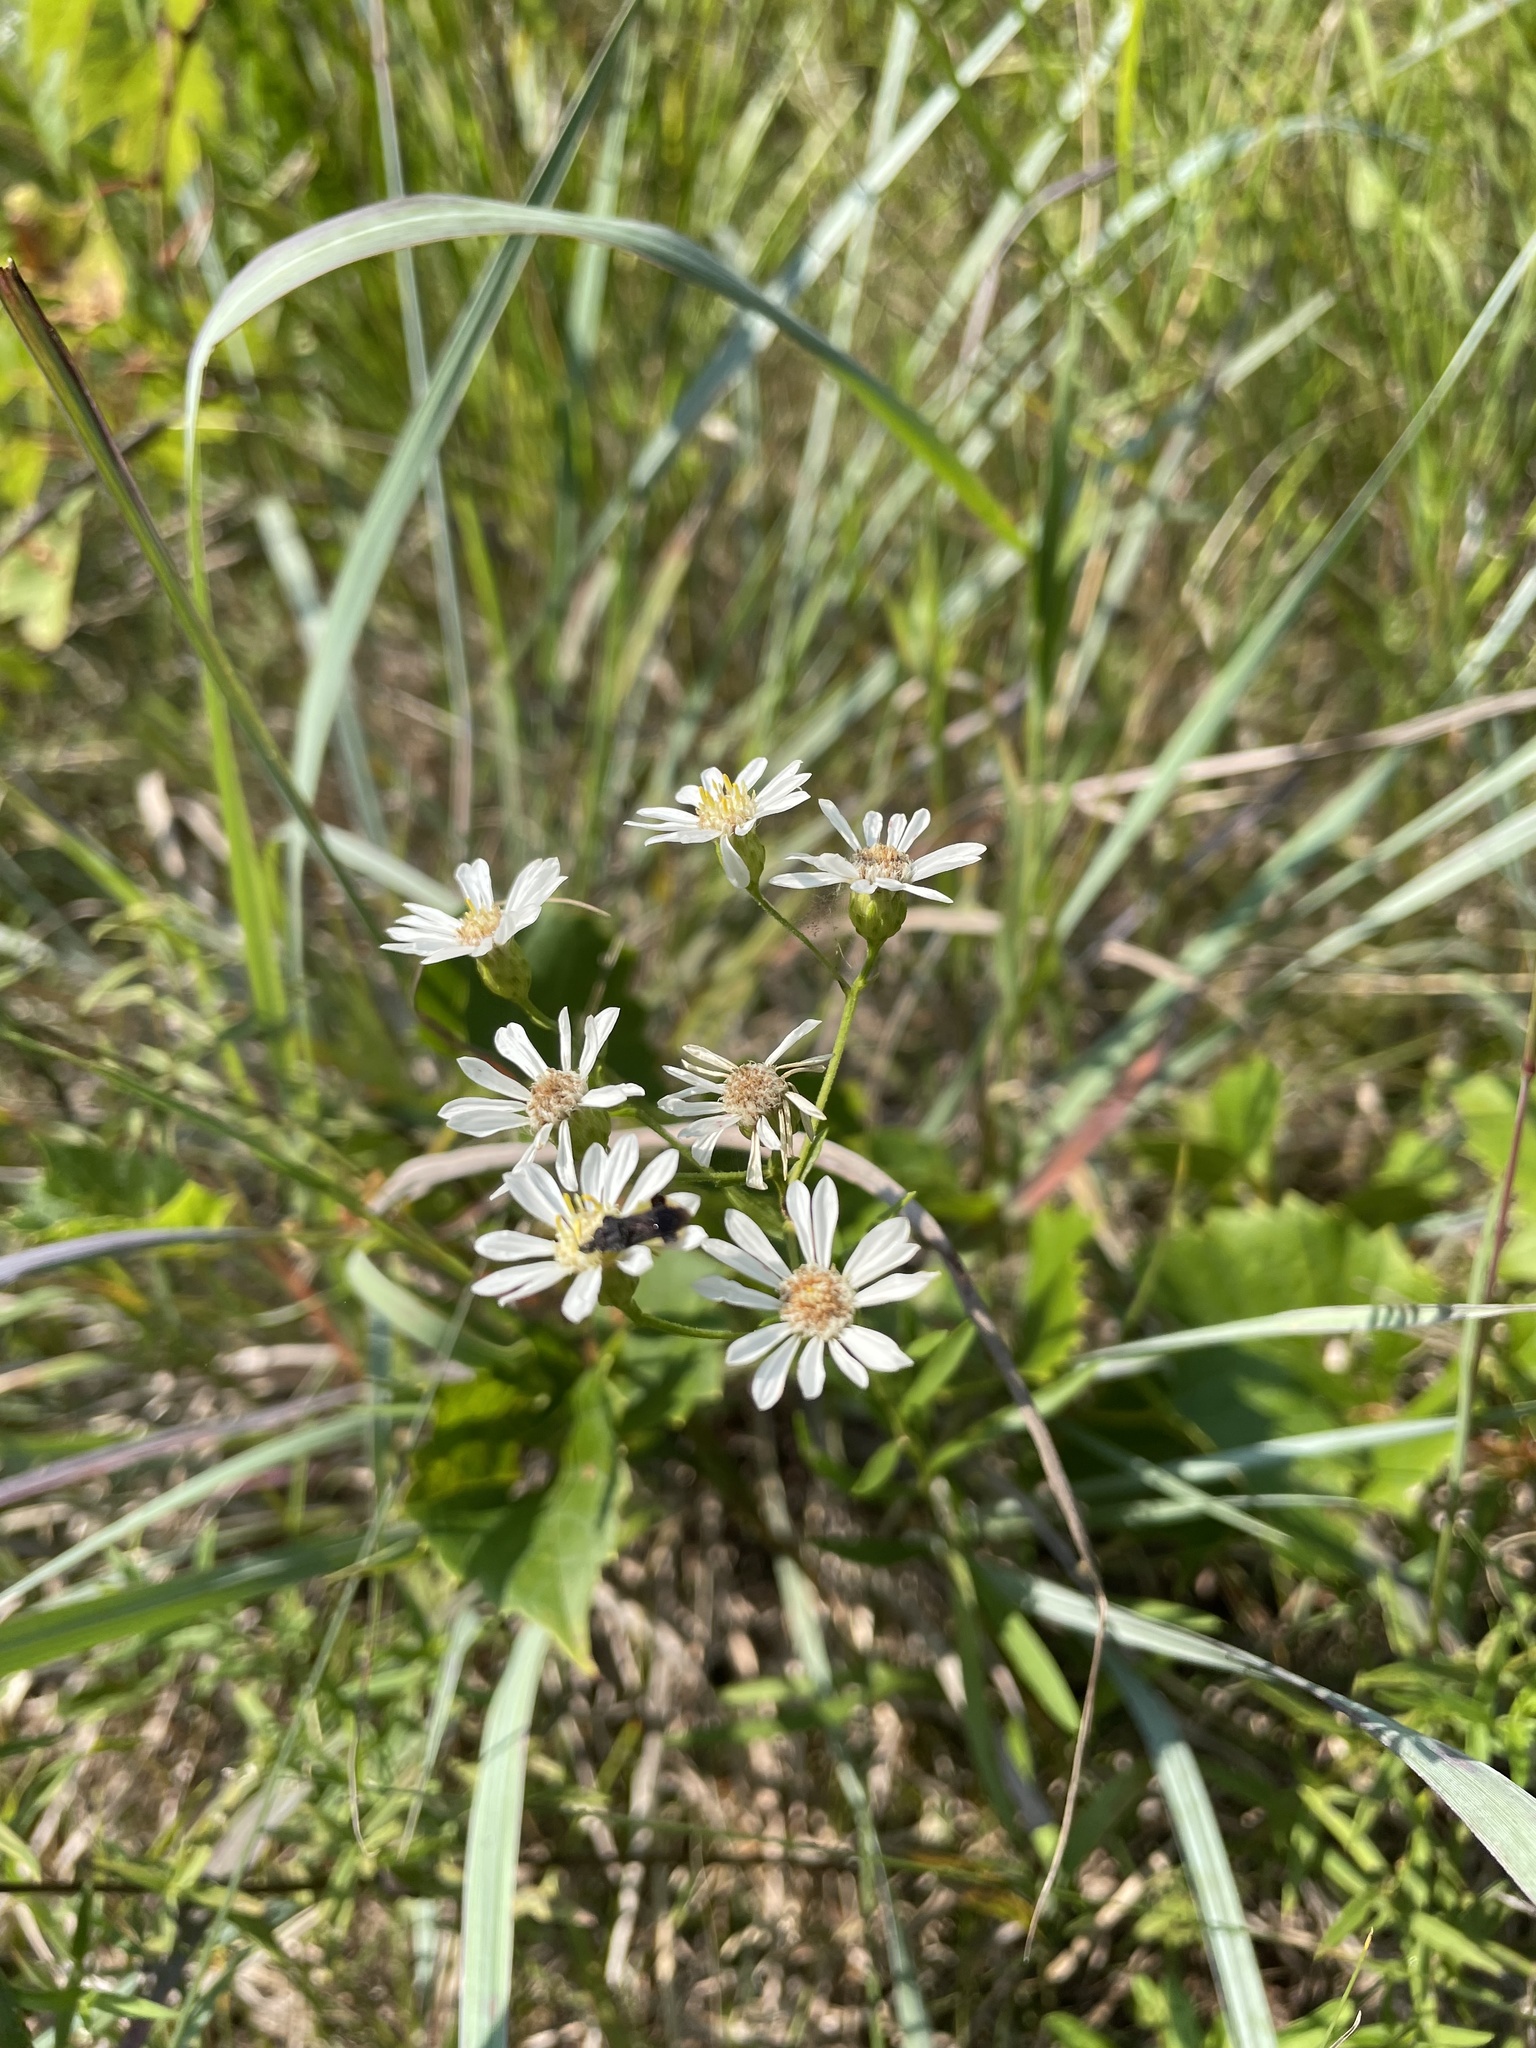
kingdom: Plantae
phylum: Tracheophyta
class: Magnoliopsida
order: Asterales
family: Asteraceae
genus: Solidago
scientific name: Solidago ptarmicoides
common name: White flat-top goldenrod
